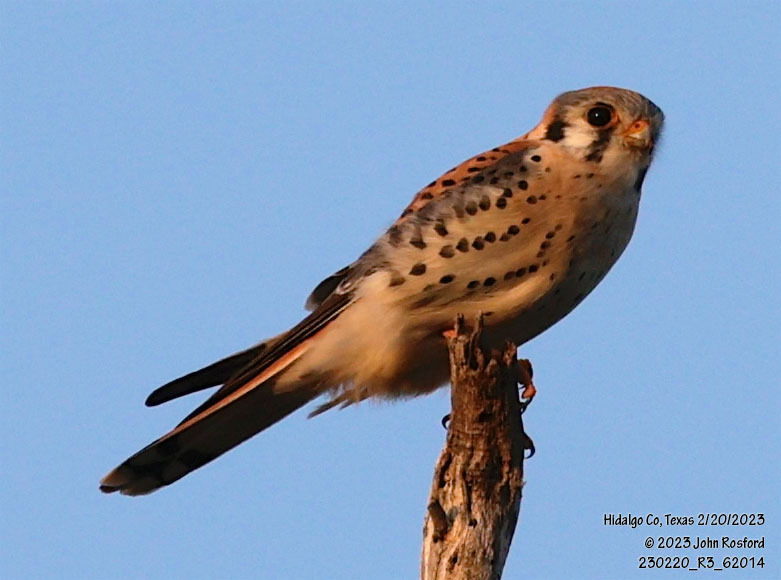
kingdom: Animalia
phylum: Chordata
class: Aves
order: Falconiformes
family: Falconidae
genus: Falco
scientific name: Falco sparverius
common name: American kestrel
